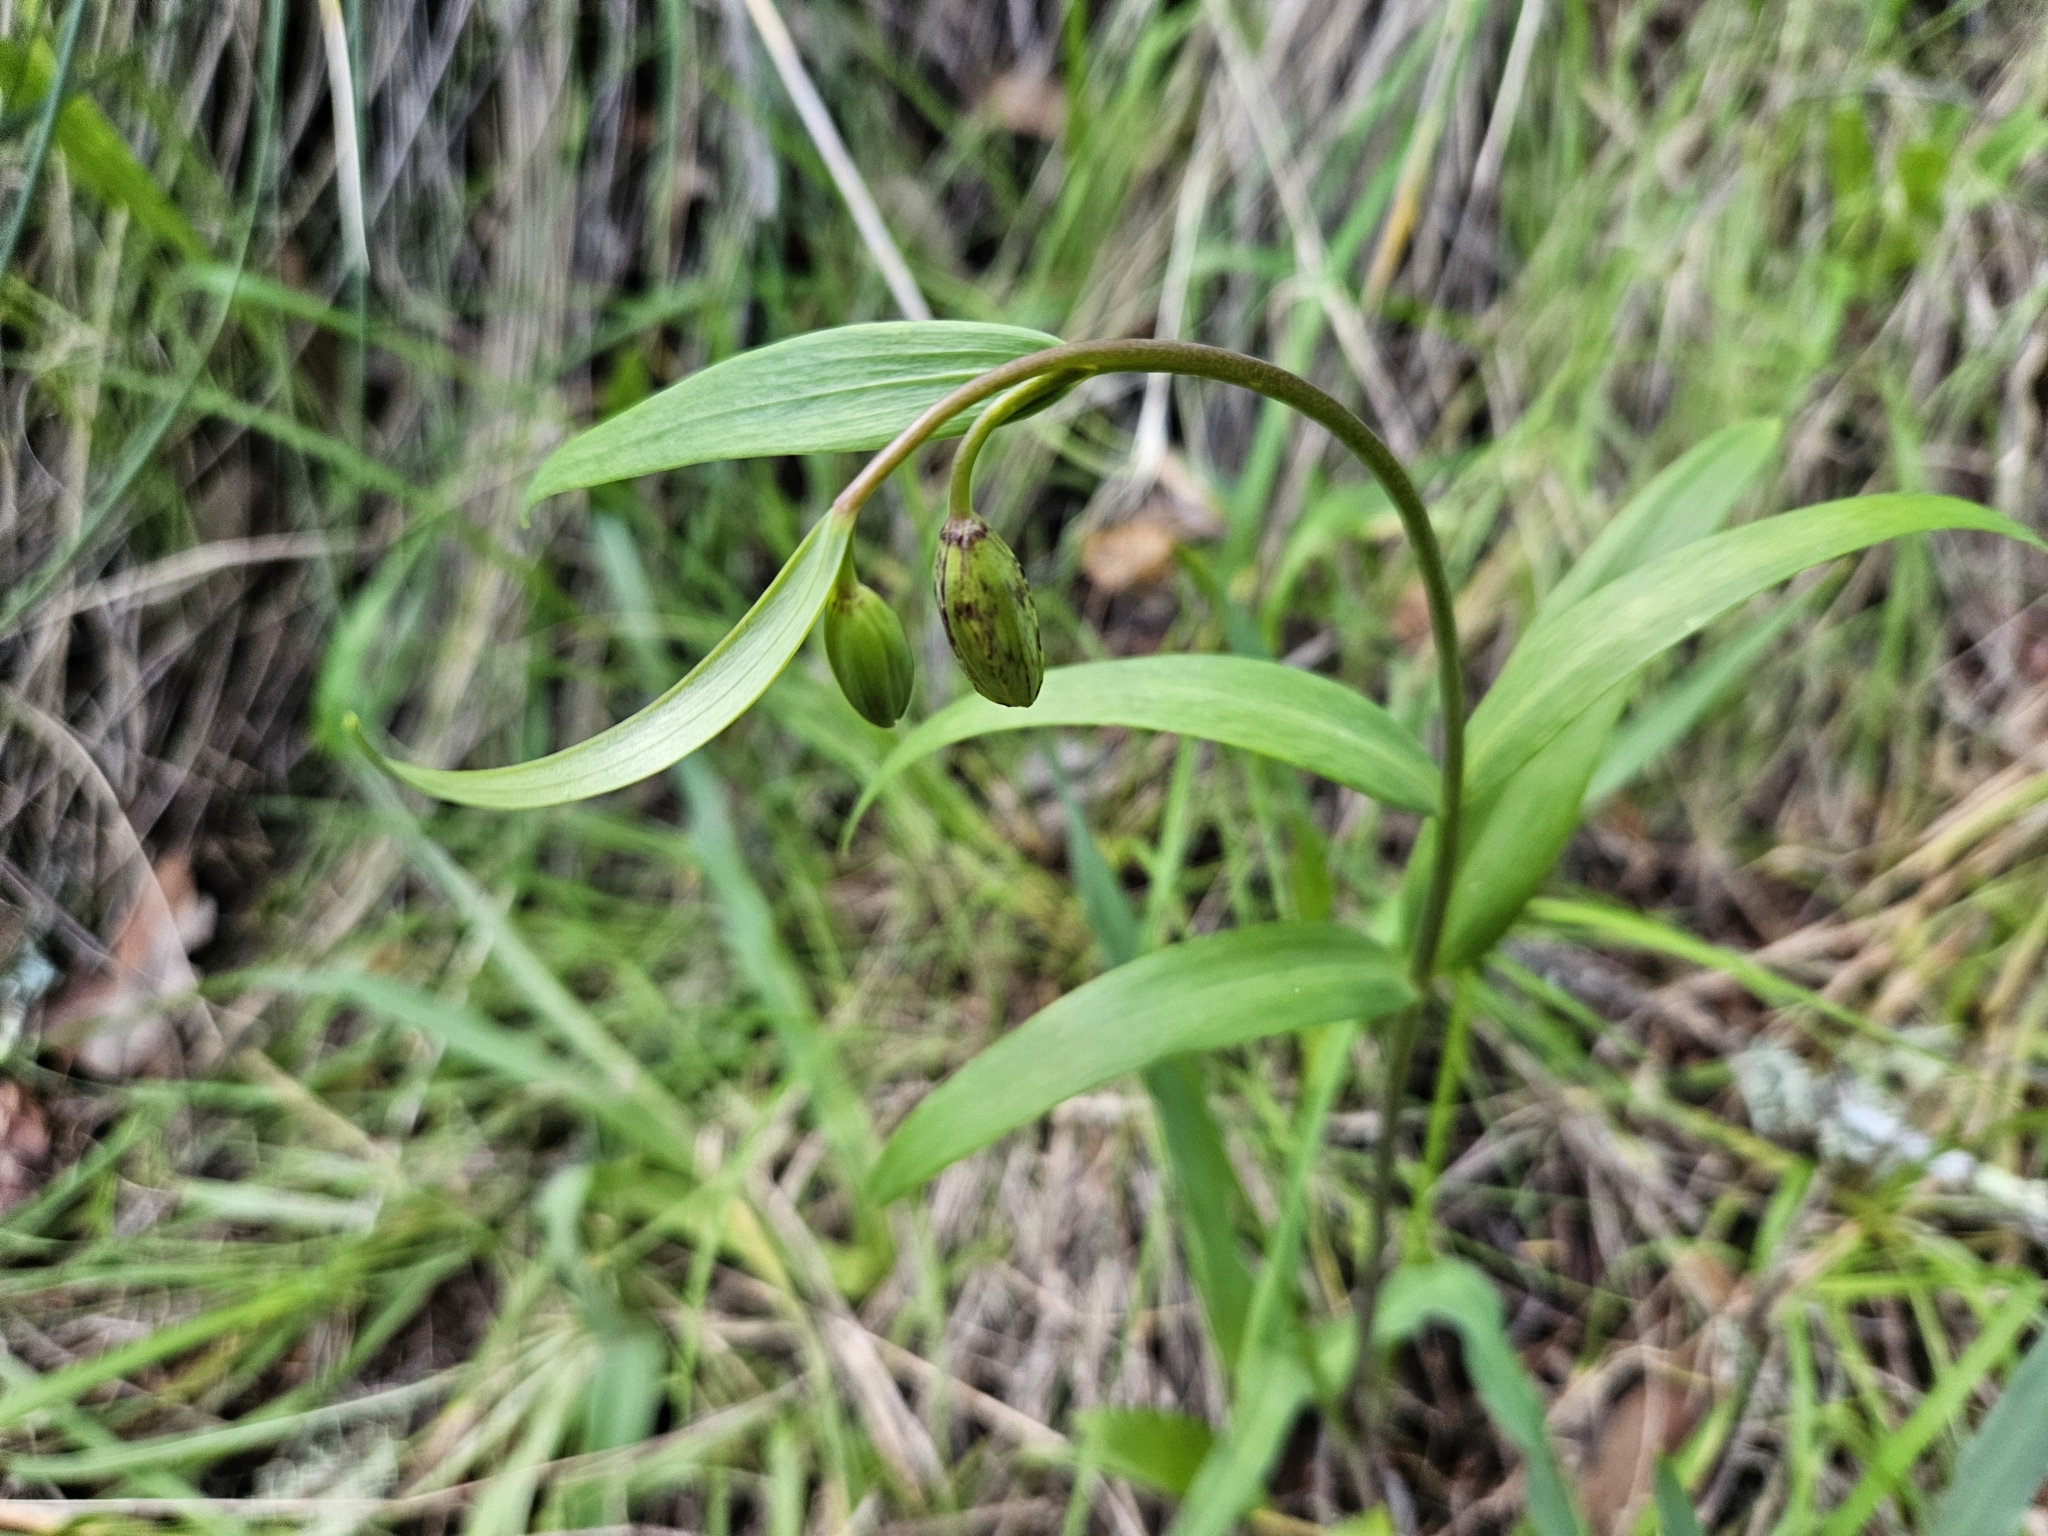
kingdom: Plantae
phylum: Tracheophyta
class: Liliopsida
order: Liliales
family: Liliaceae
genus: Fritillaria
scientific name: Fritillaria affinis
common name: Ojai fritillary
